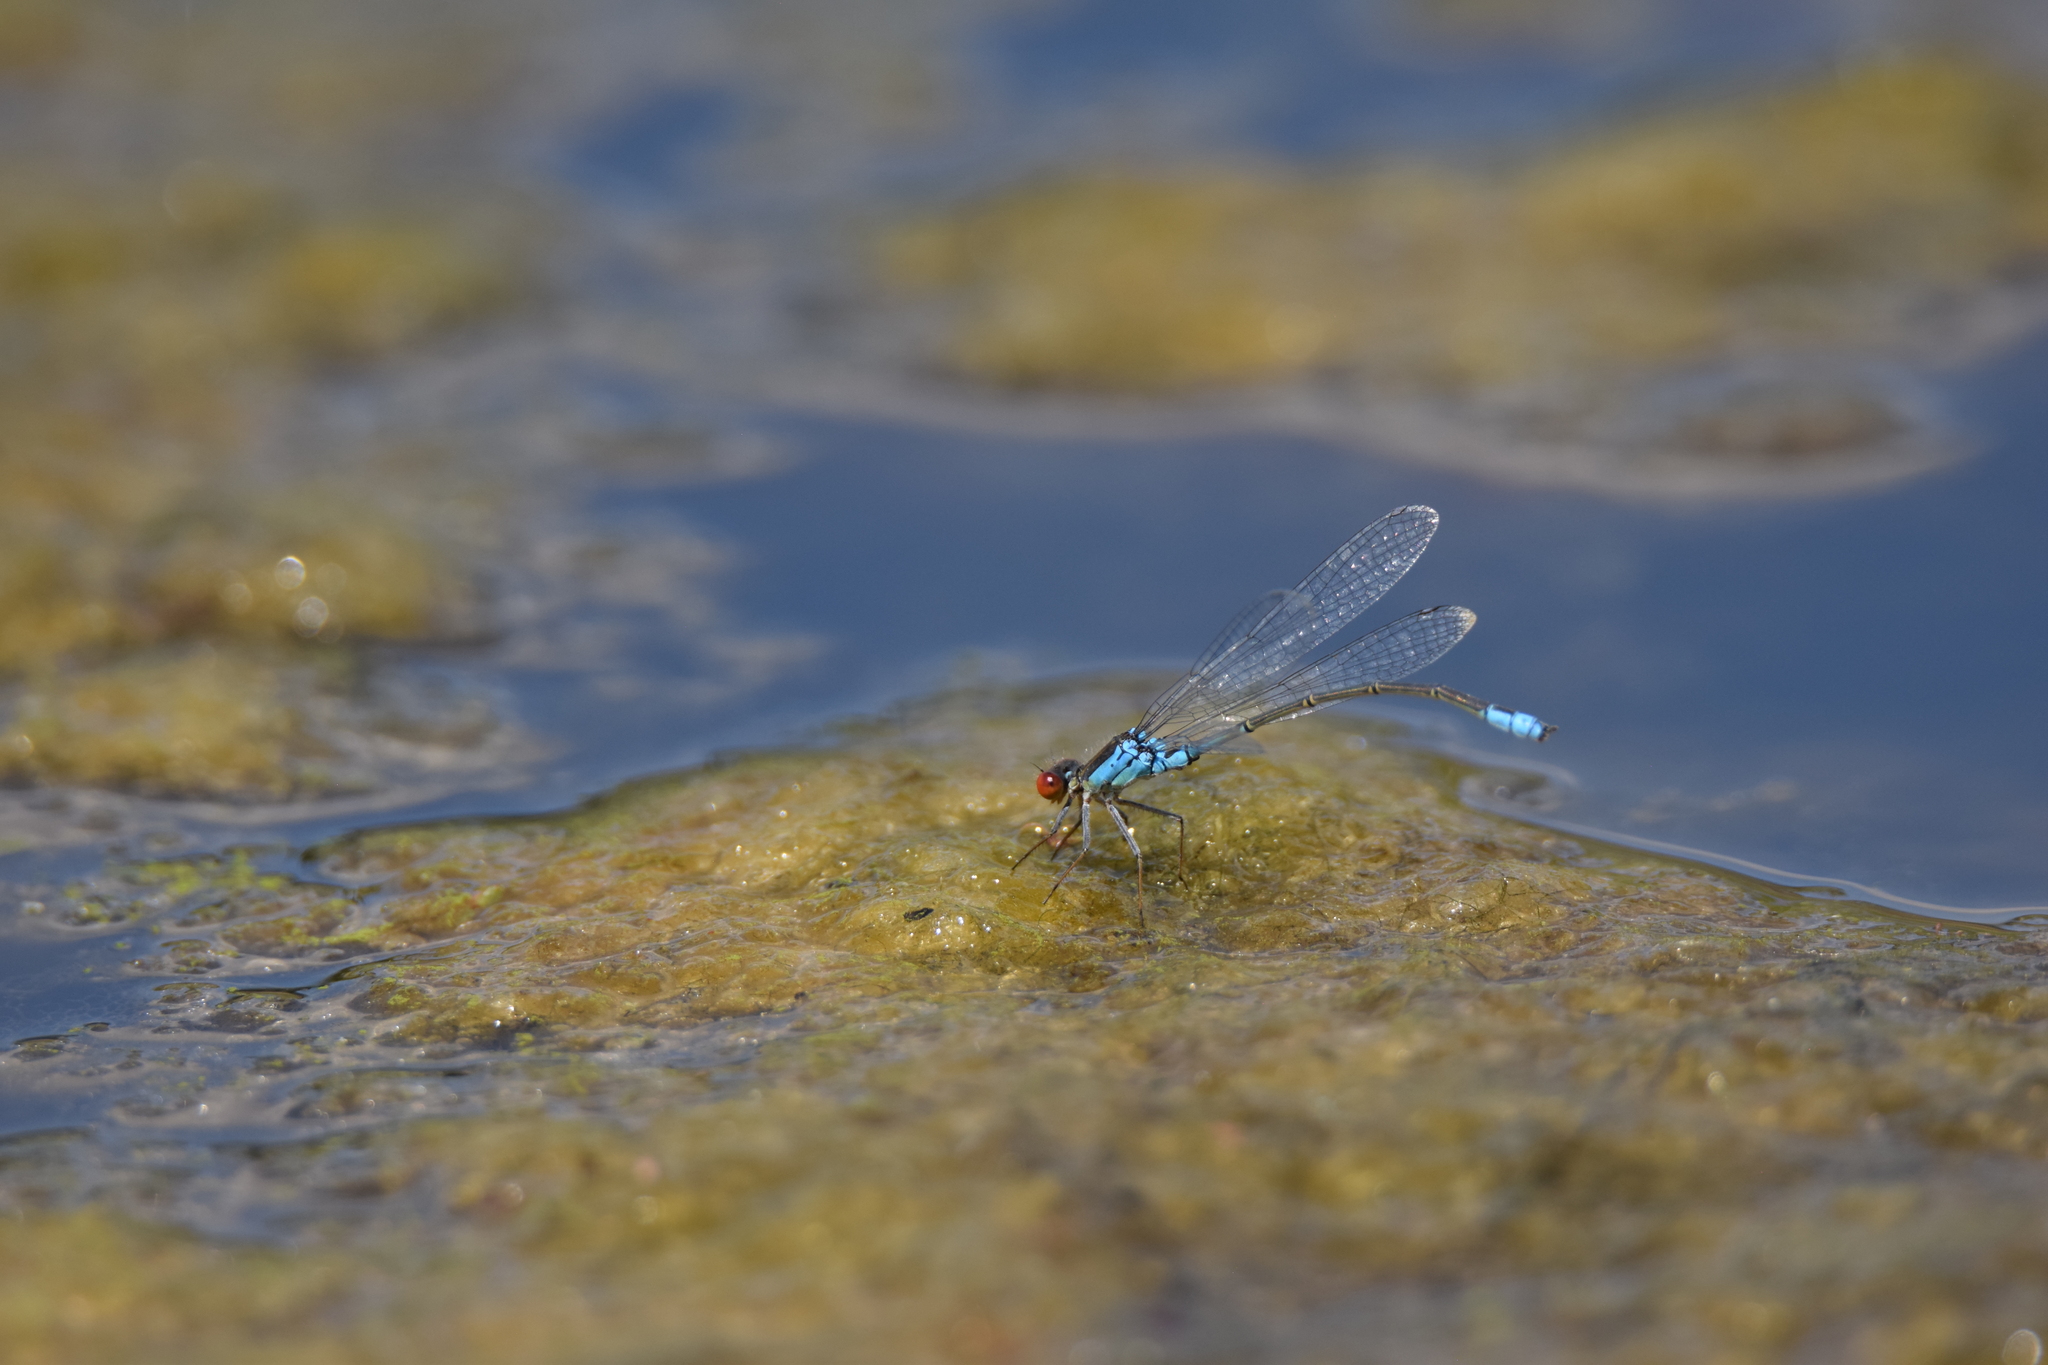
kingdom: Animalia
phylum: Arthropoda
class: Insecta
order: Odonata
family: Coenagrionidae
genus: Erythromma
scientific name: Erythromma viridulum
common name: Small red-eyed damselfly
